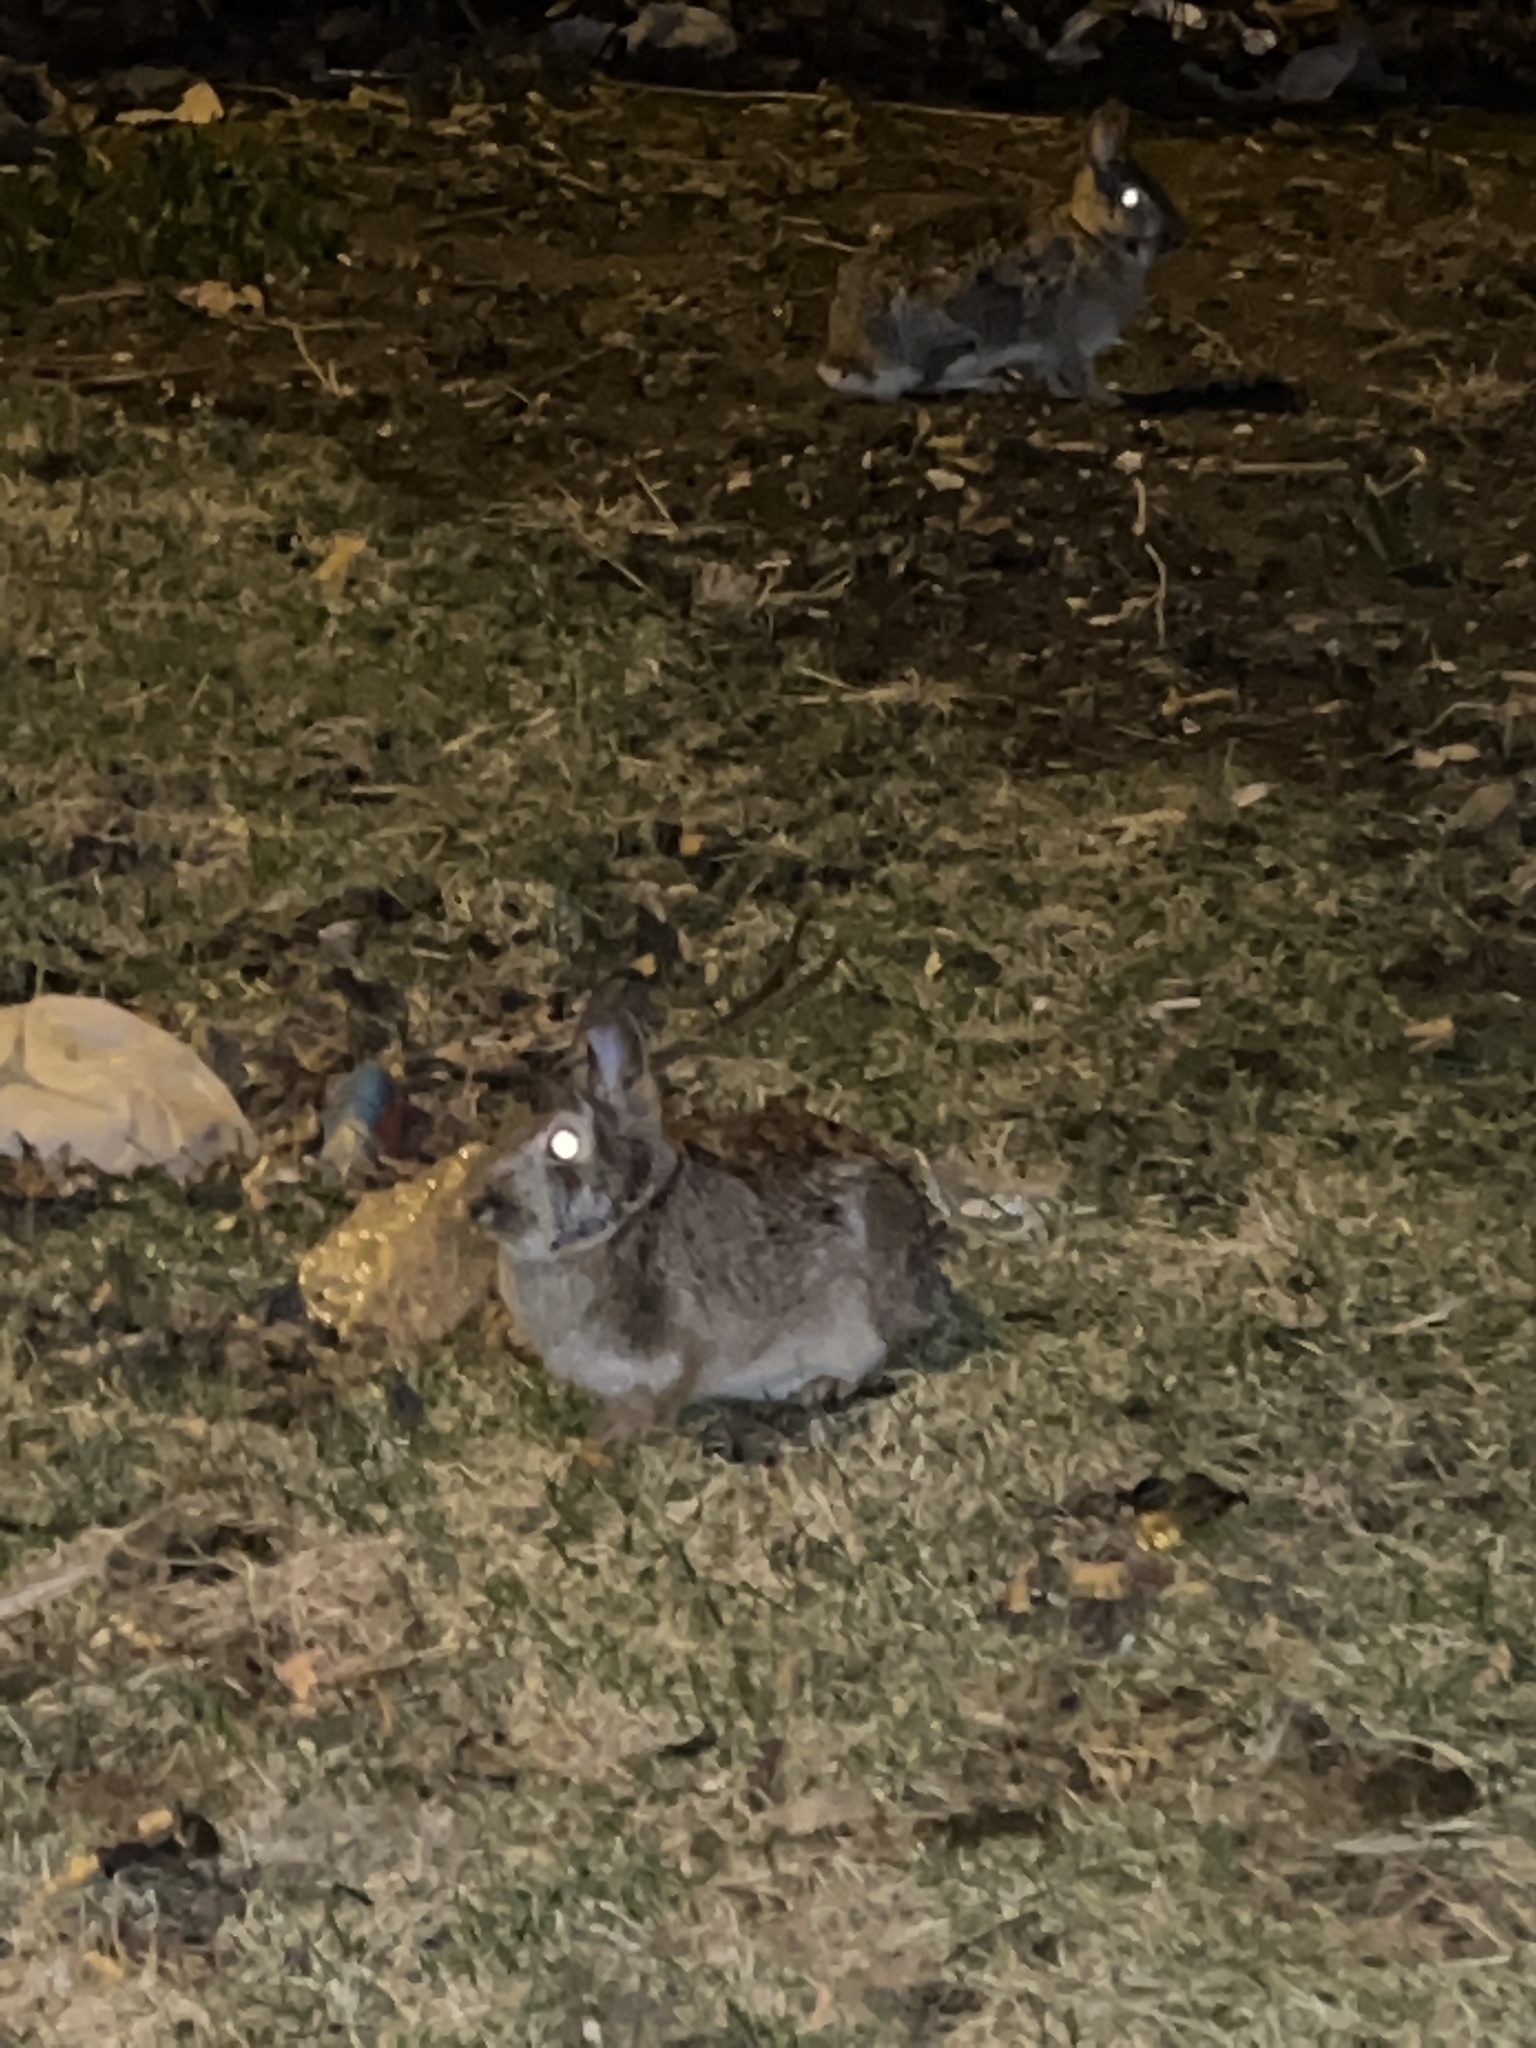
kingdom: Animalia
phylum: Chordata
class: Mammalia
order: Lagomorpha
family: Leporidae
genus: Sylvilagus
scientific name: Sylvilagus floridanus
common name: Eastern cottontail
